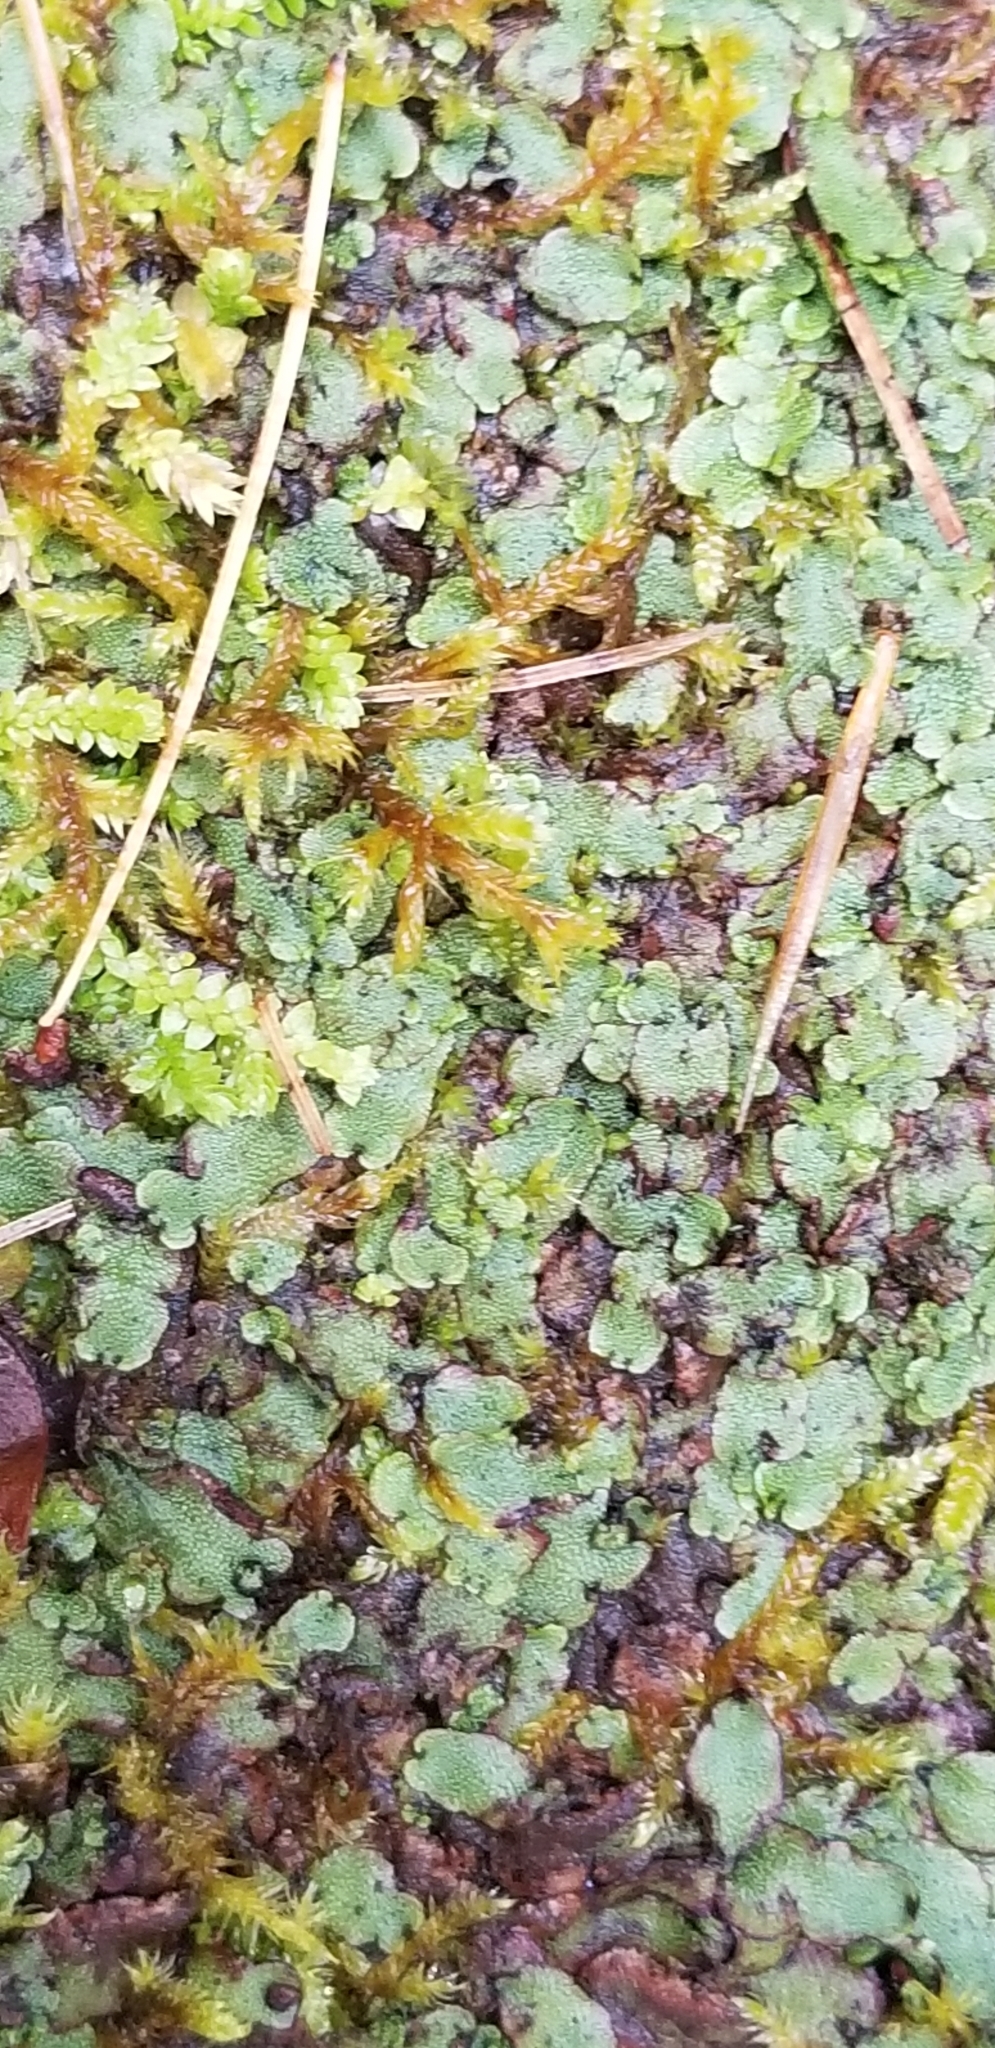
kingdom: Plantae
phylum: Marchantiophyta
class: Marchantiopsida
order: Marchantiales
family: Marchantiaceae
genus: Marchantia
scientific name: Marchantia quadrata
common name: Narrow mushroom-headed liverwort
